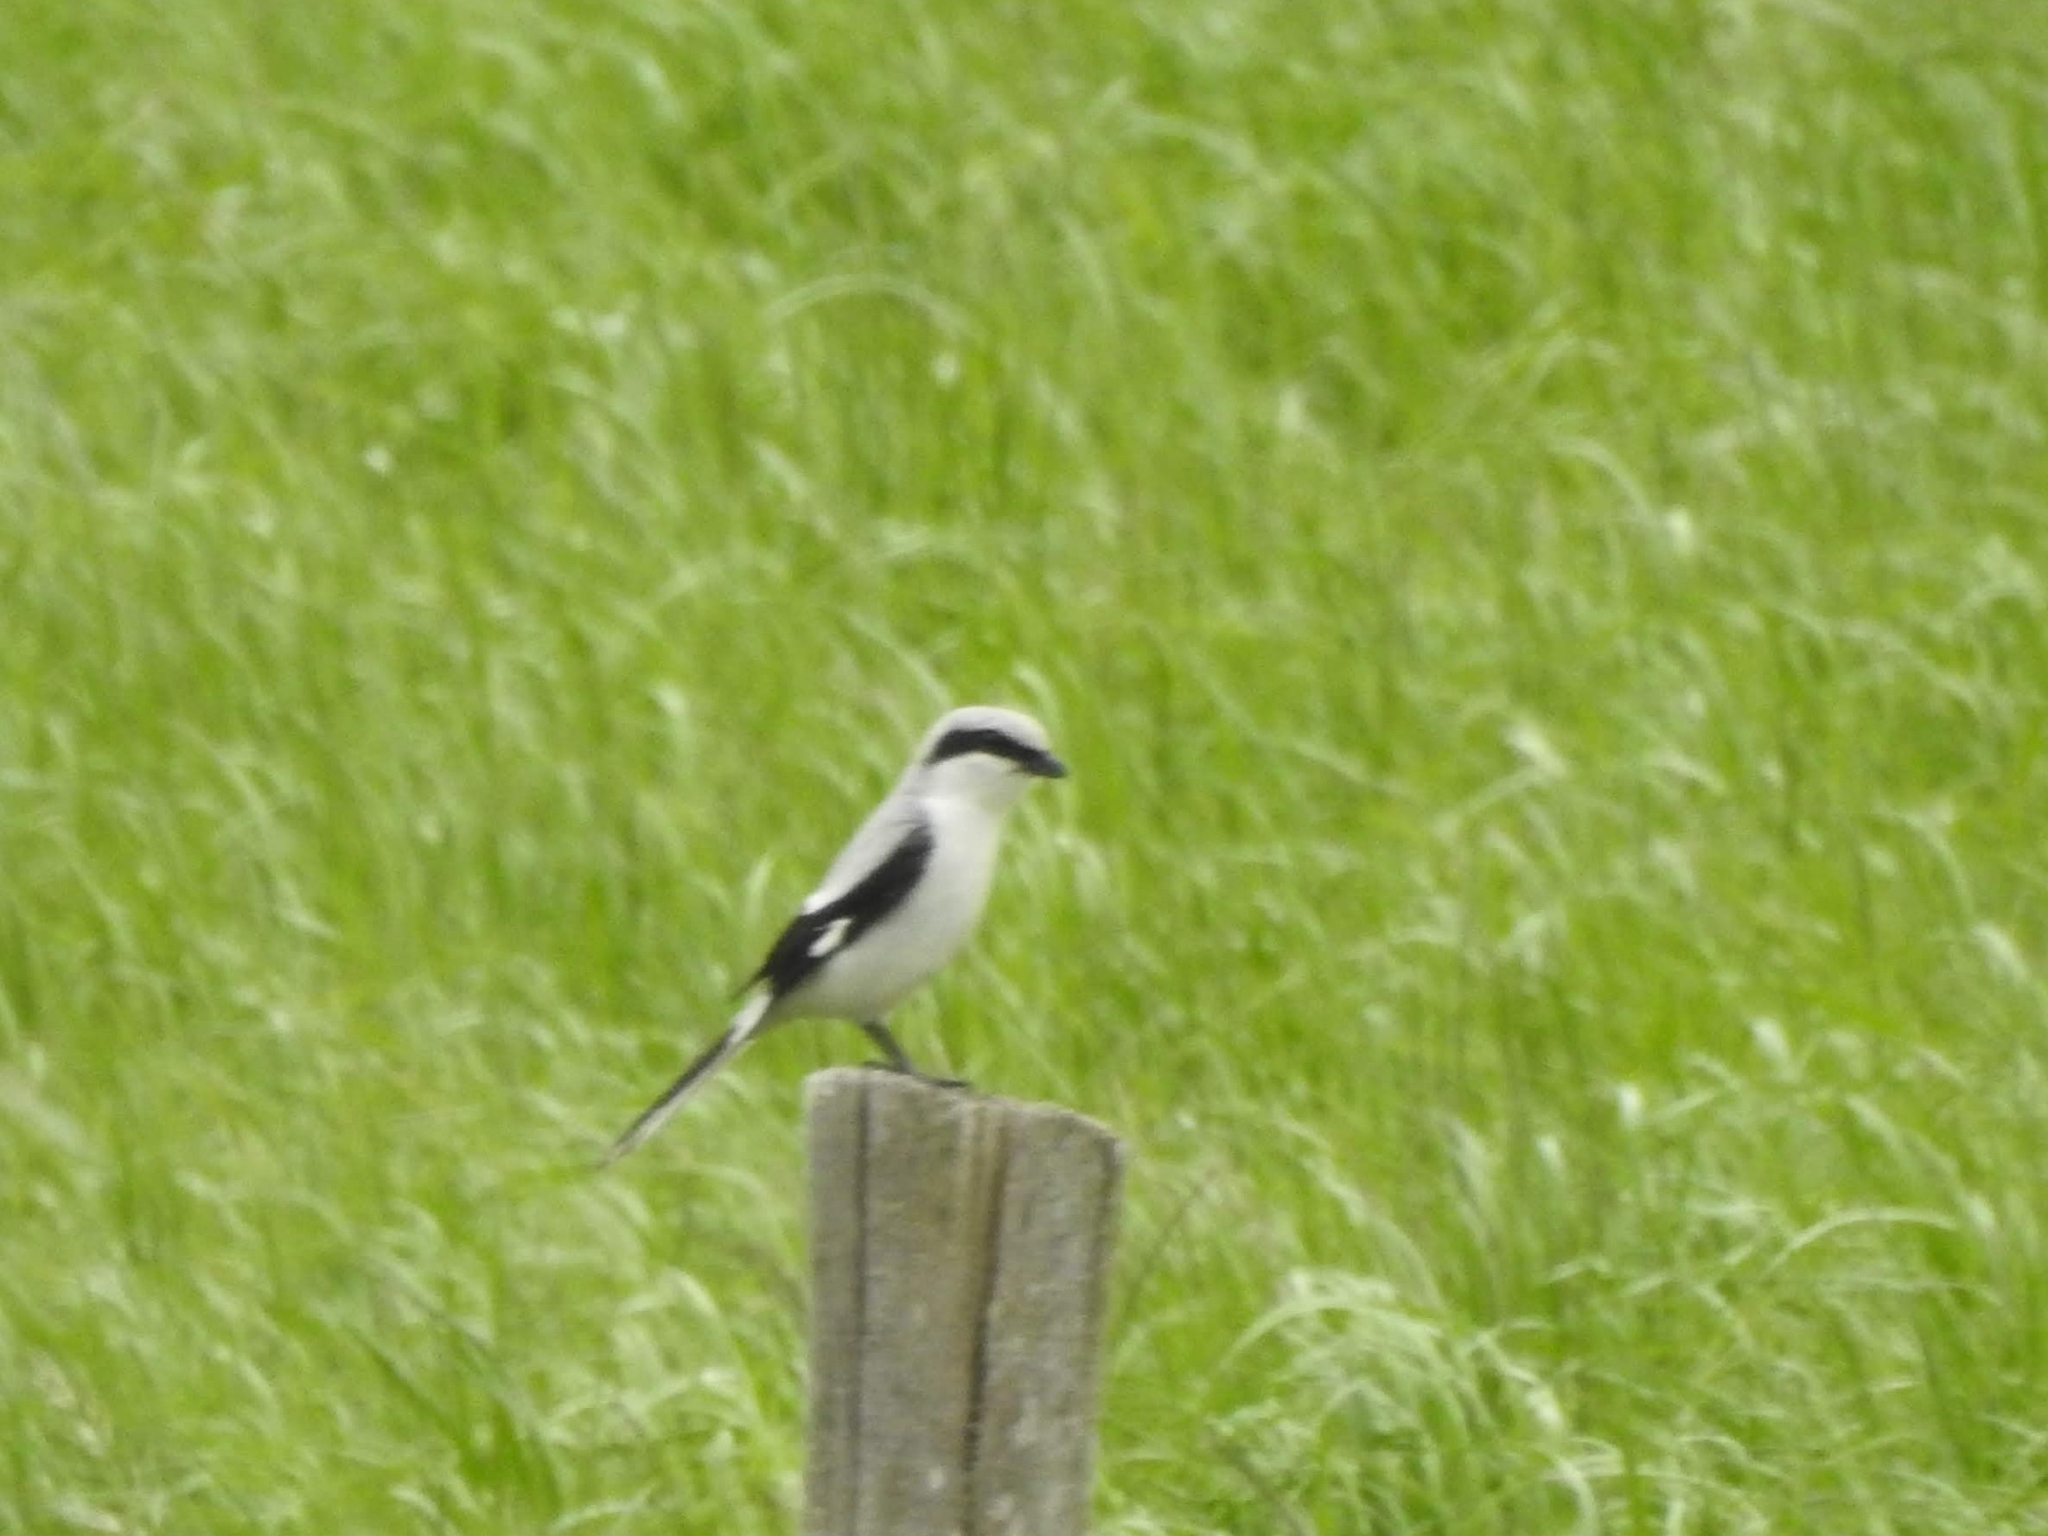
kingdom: Animalia
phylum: Chordata
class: Aves
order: Passeriformes
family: Laniidae
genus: Lanius
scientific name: Lanius excubitor
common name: Great grey shrike
